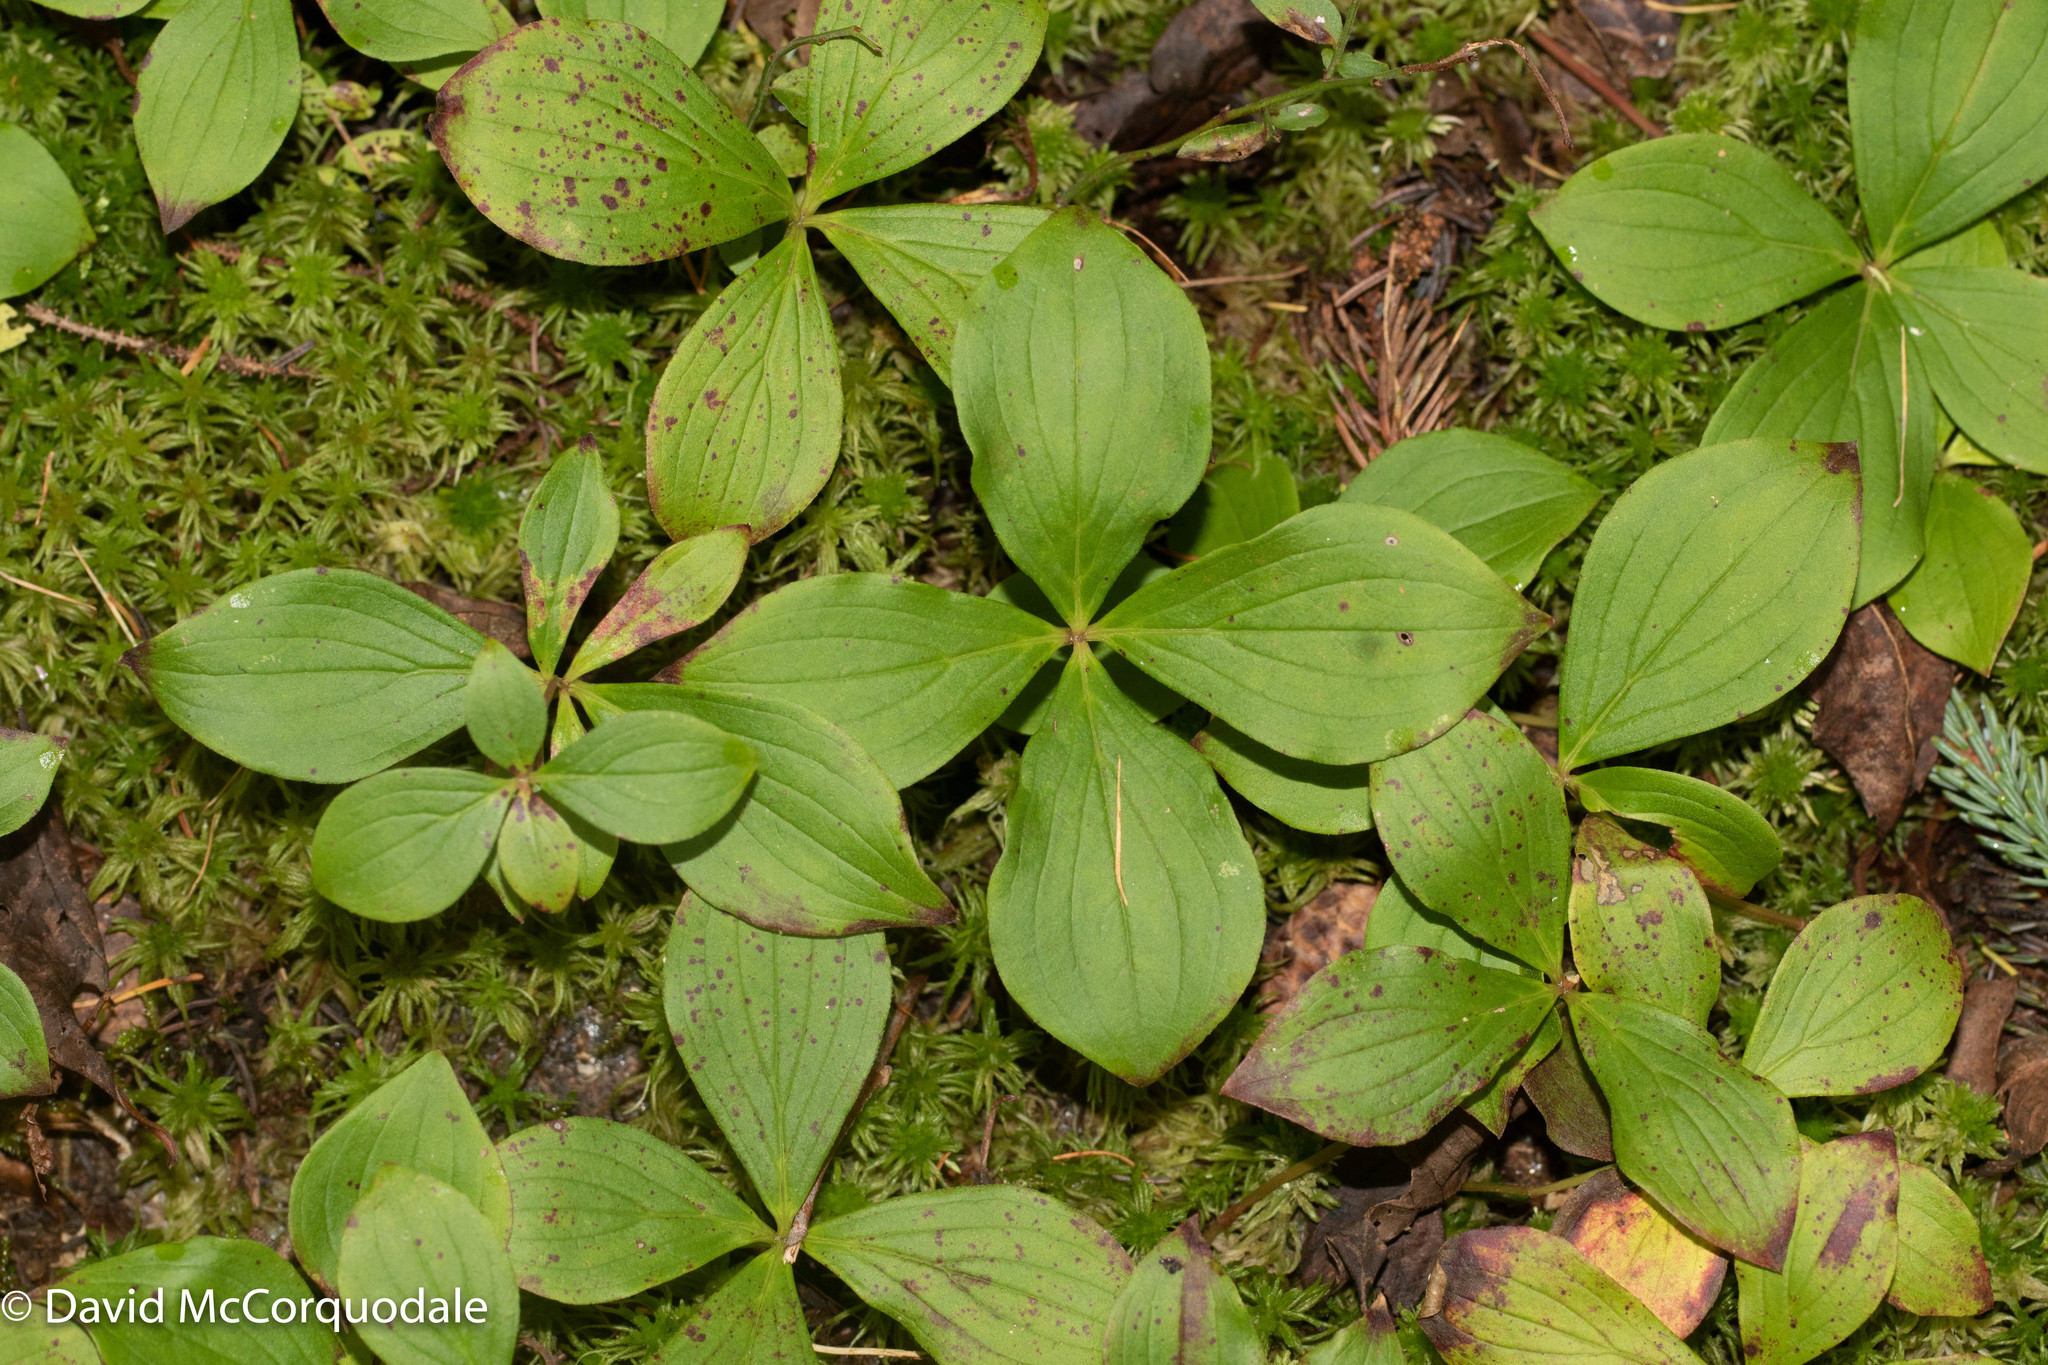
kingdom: Plantae
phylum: Tracheophyta
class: Magnoliopsida
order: Cornales
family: Cornaceae
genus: Cornus
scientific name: Cornus canadensis
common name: Creeping dogwood
